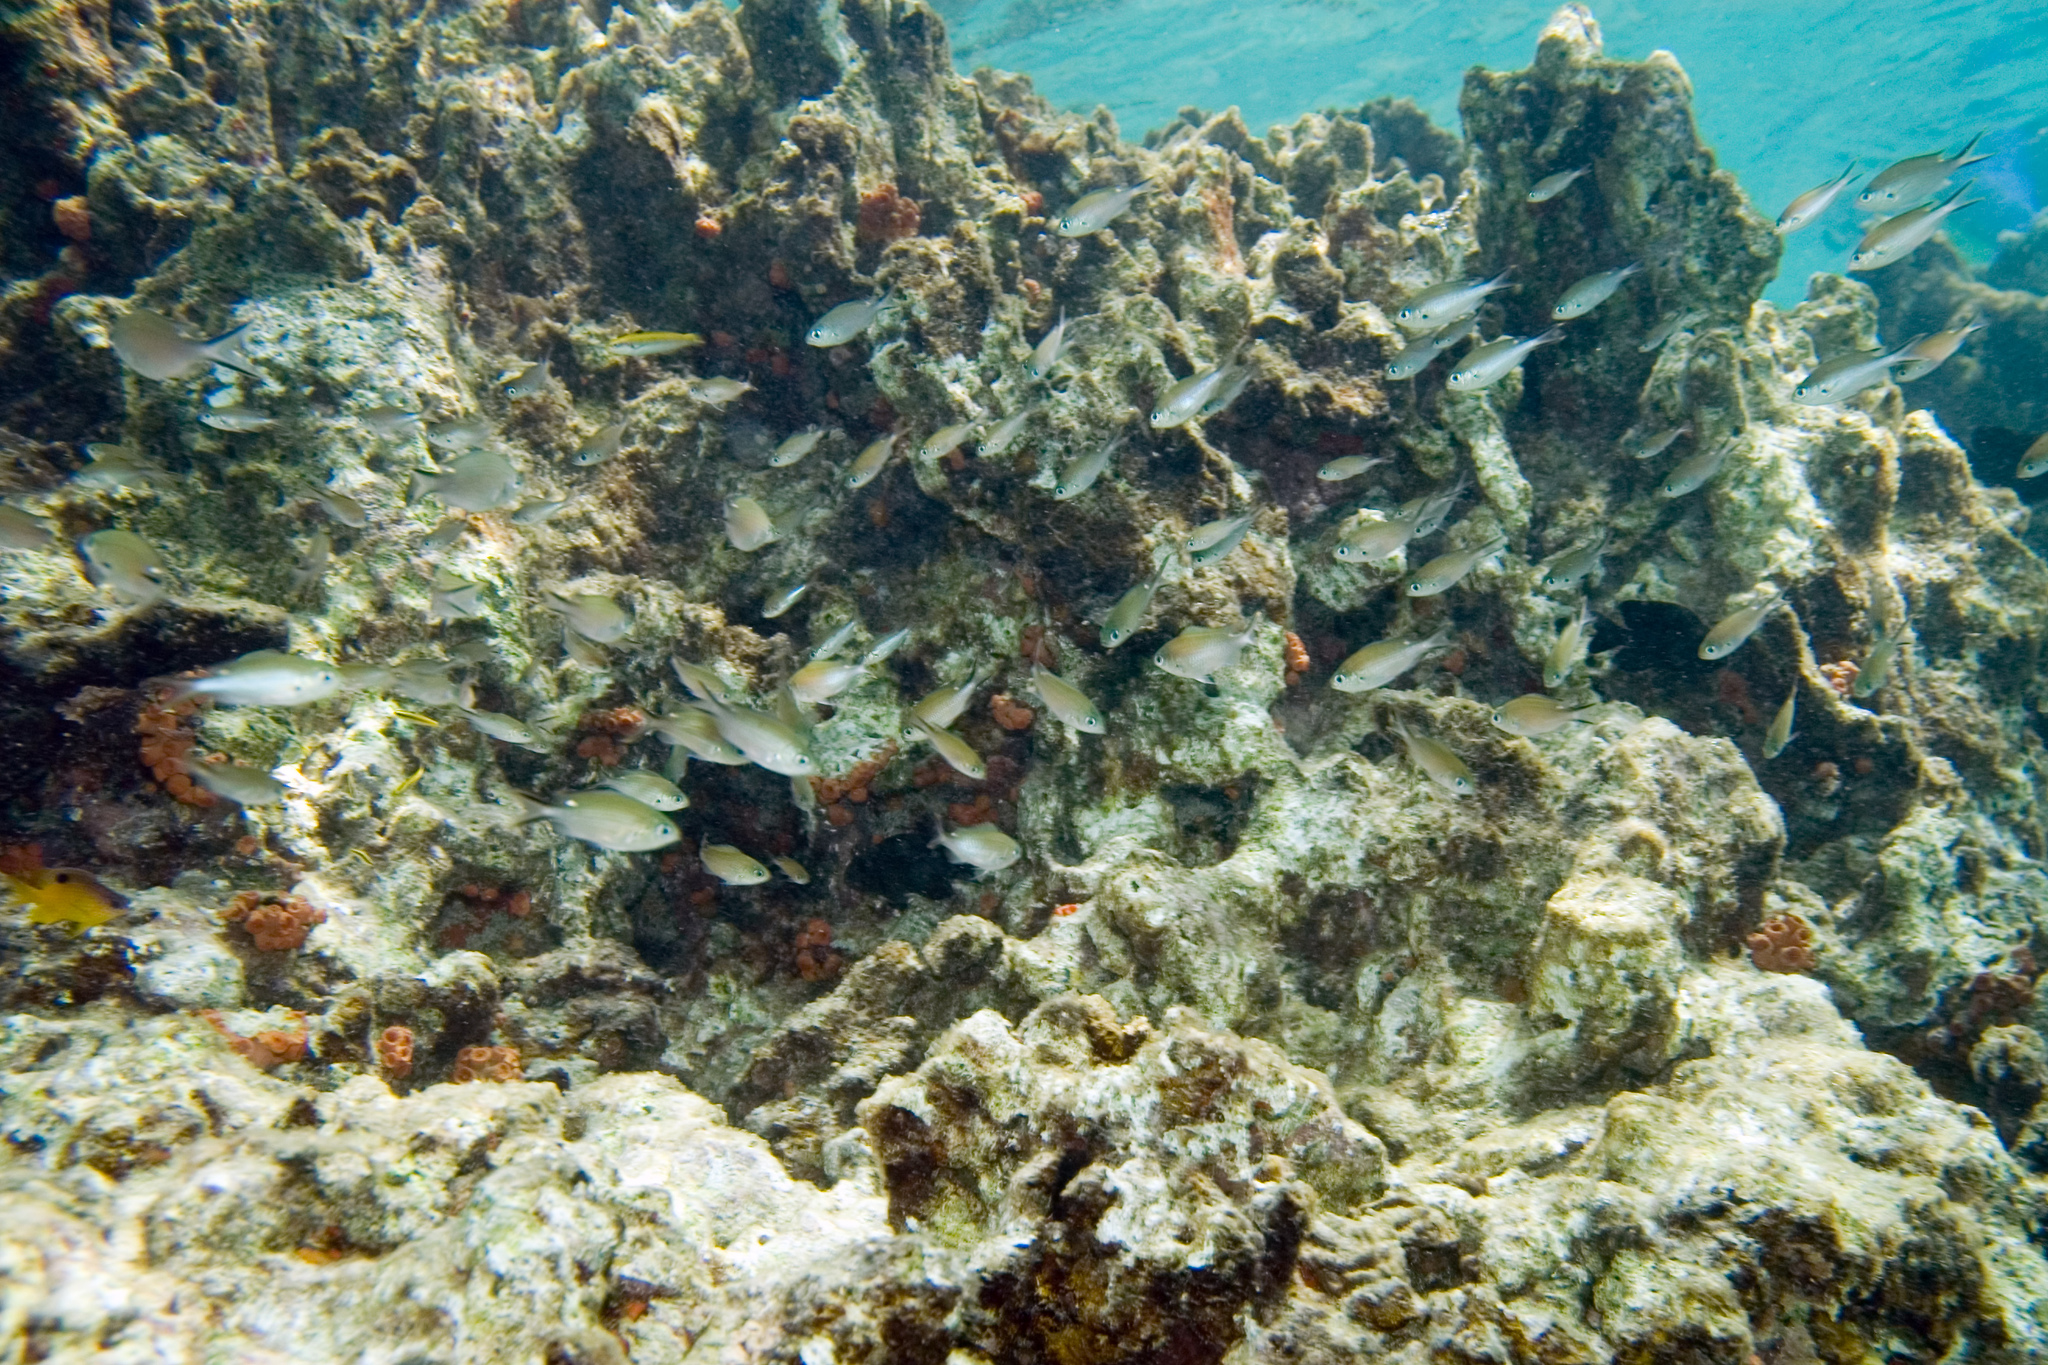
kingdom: Animalia
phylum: Chordata
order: Perciformes
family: Pomacentridae
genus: Chromis
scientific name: Chromis multilineata
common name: Brown chromis
